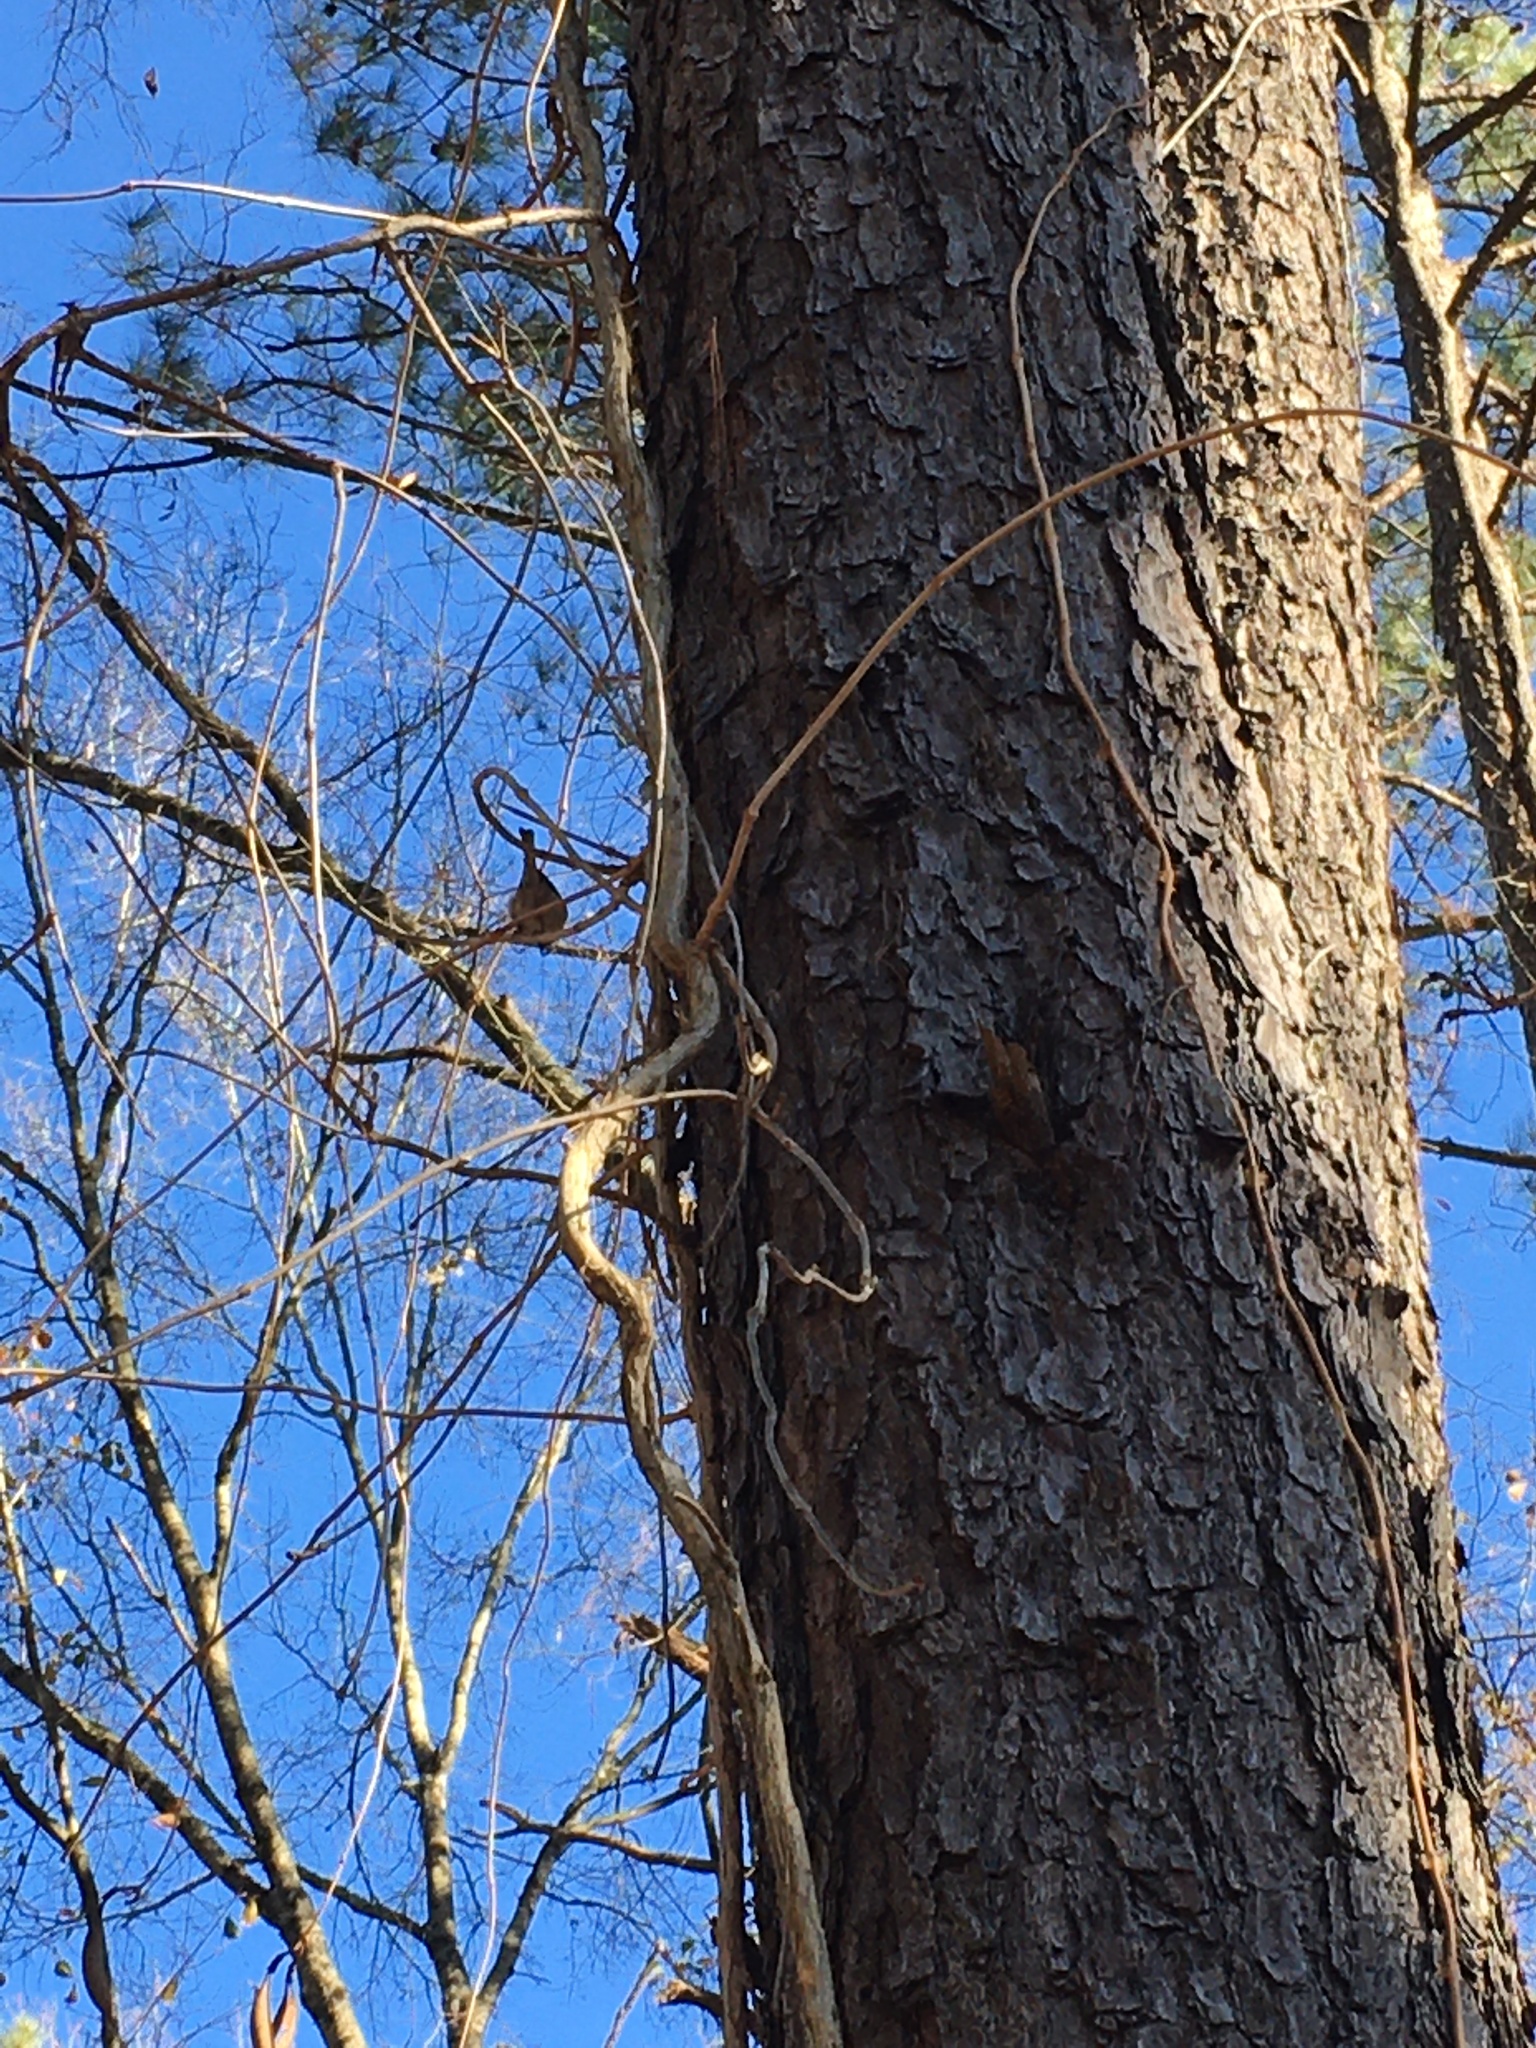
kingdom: Animalia
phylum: Chordata
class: Aves
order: Passeriformes
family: Paridae
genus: Poecile
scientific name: Poecile carolinensis
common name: Carolina chickadee
